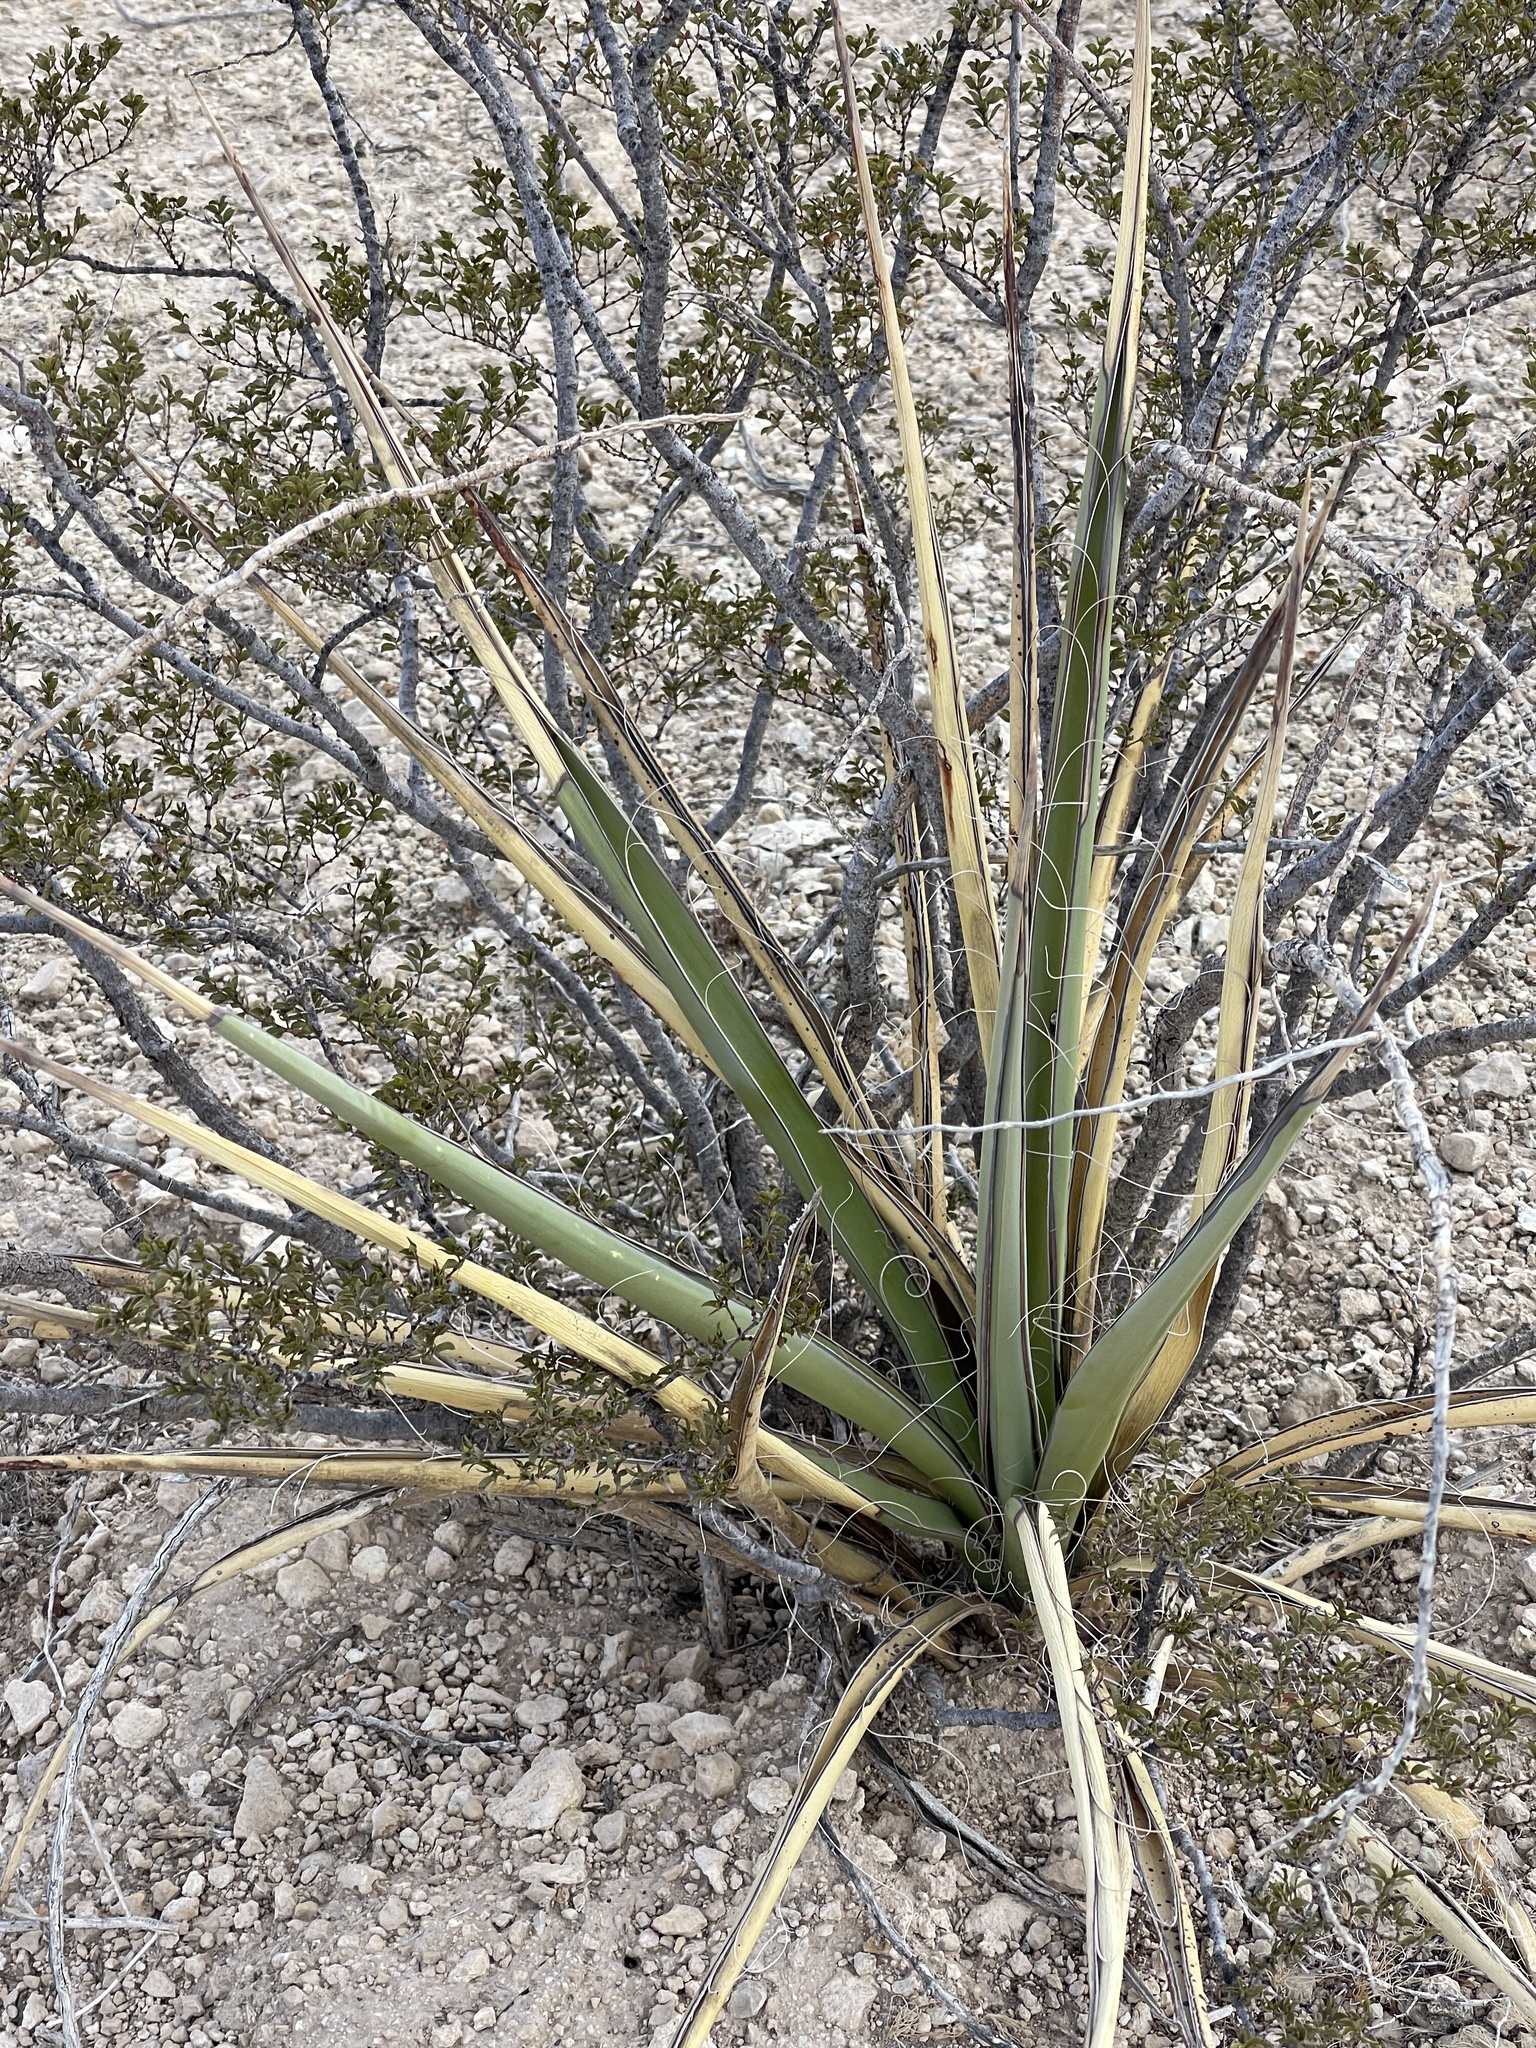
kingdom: Plantae
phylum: Tracheophyta
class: Liliopsida
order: Asparagales
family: Asparagaceae
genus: Yucca
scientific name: Yucca treculiana
